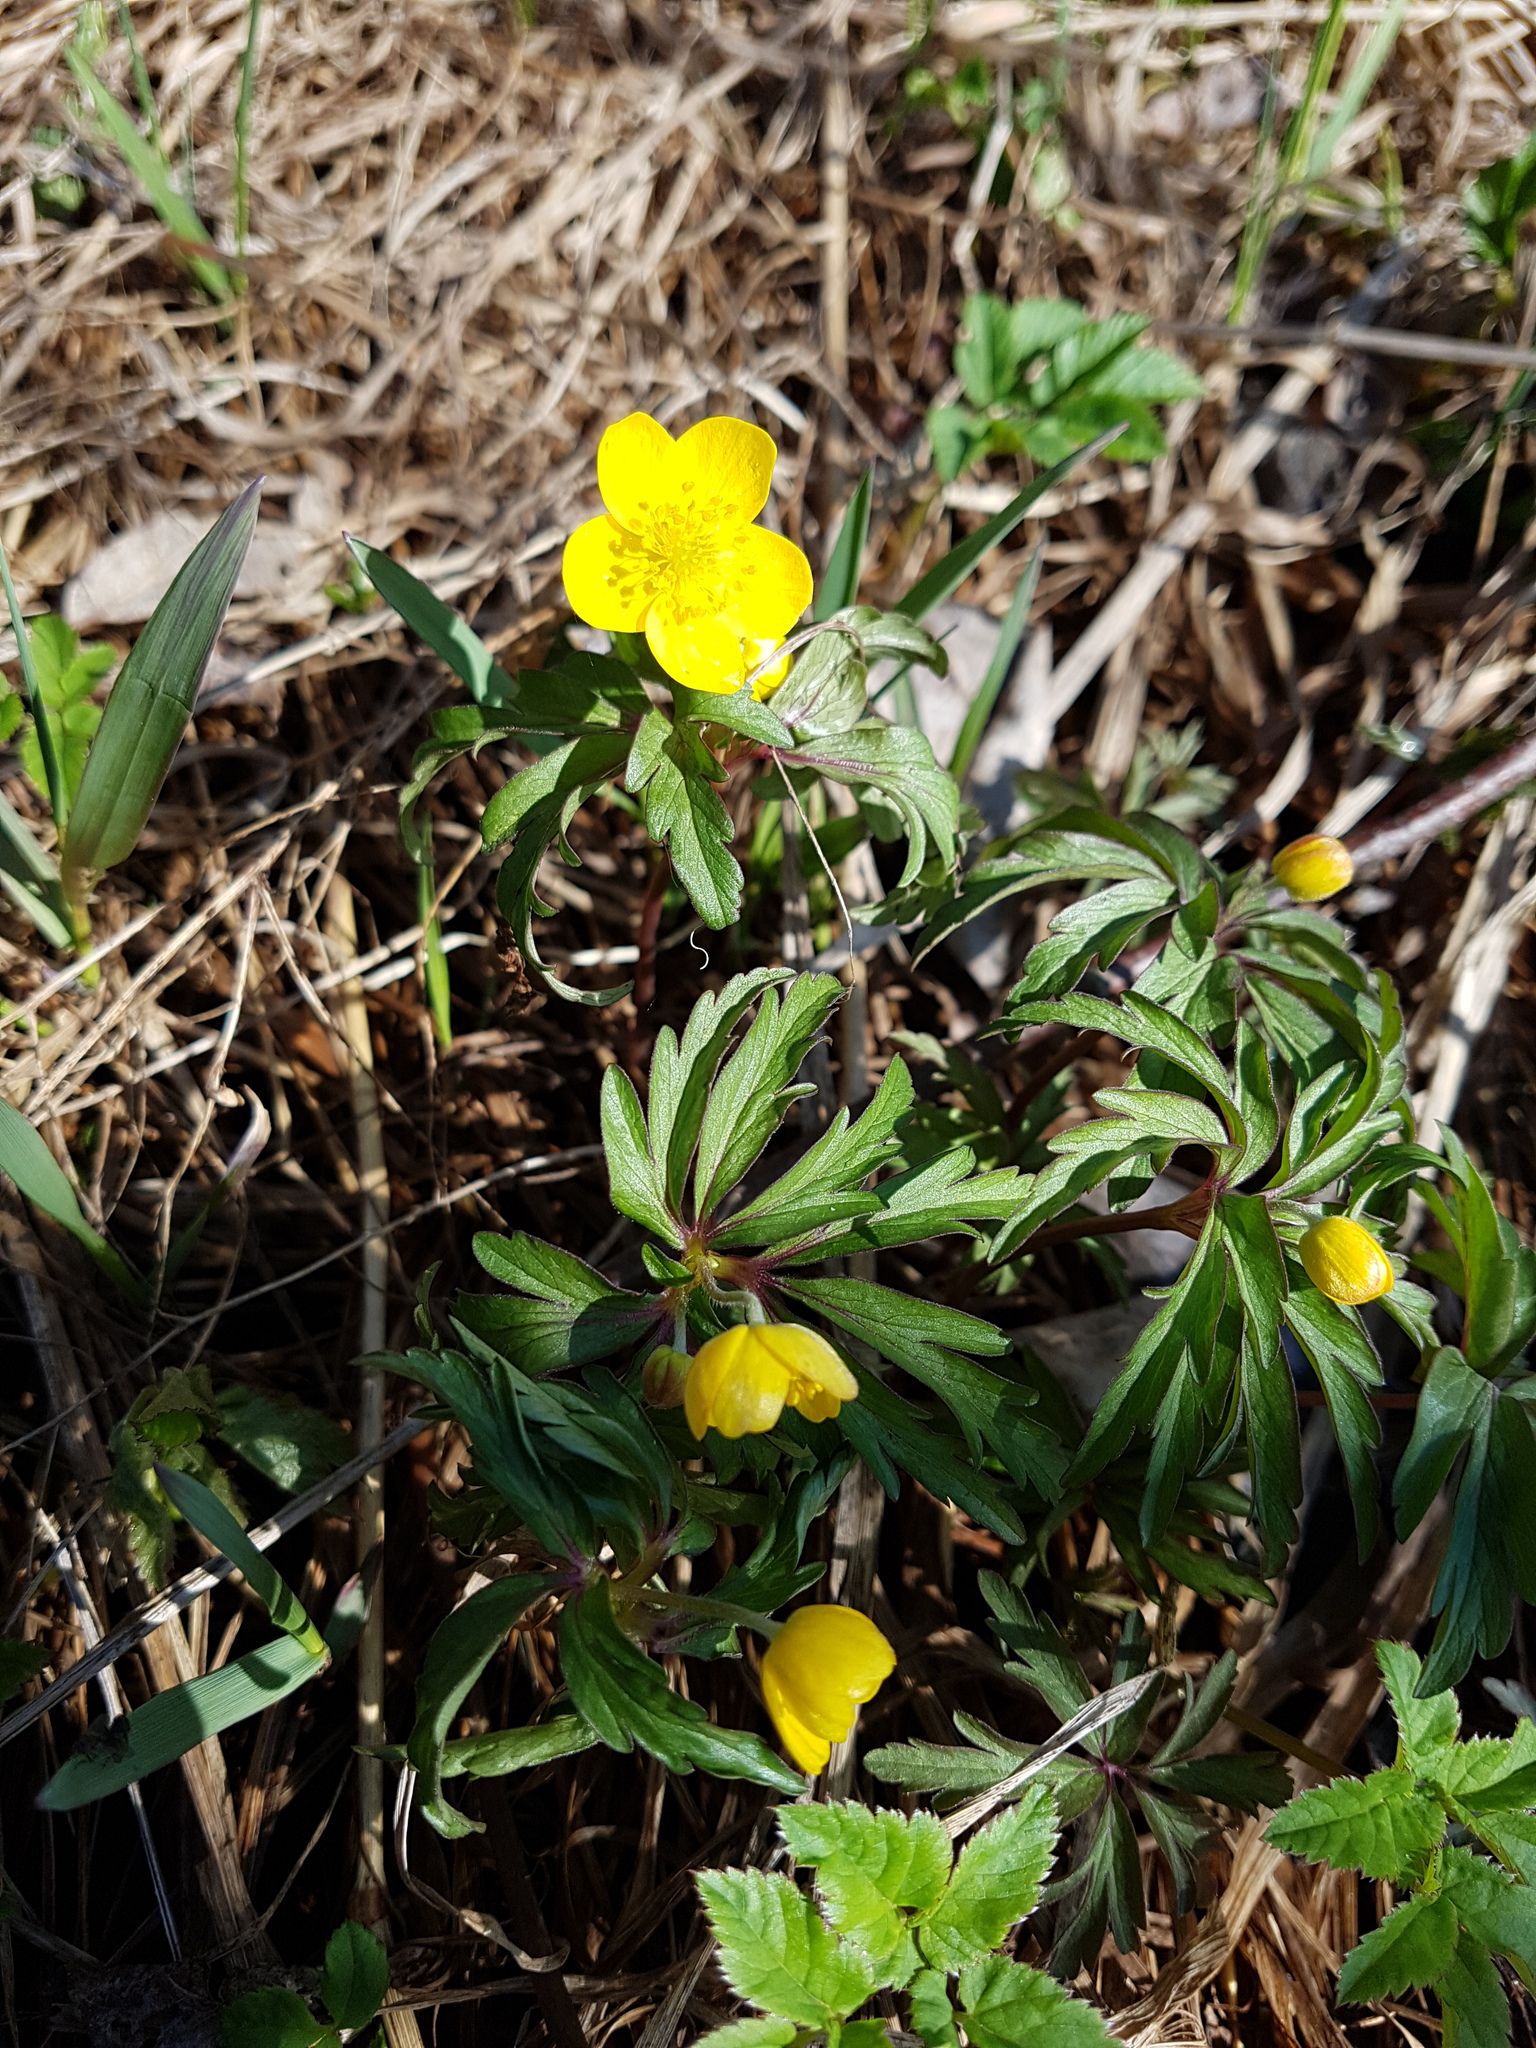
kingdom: Plantae
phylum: Tracheophyta
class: Magnoliopsida
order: Ranunculales
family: Ranunculaceae
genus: Anemone
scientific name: Anemone ranunculoides
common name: Yellow anemone
